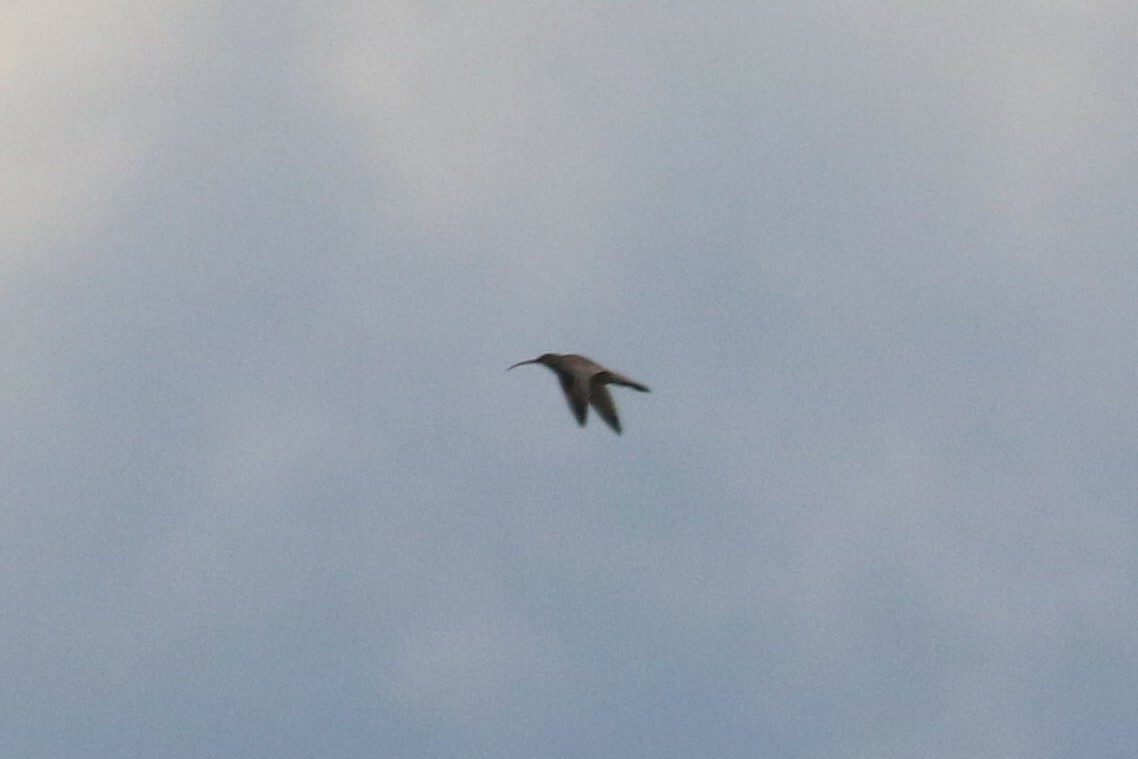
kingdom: Animalia
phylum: Chordata
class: Aves
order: Charadriiformes
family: Scolopacidae
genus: Numenius
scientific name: Numenius arquata
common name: Eurasian curlew
